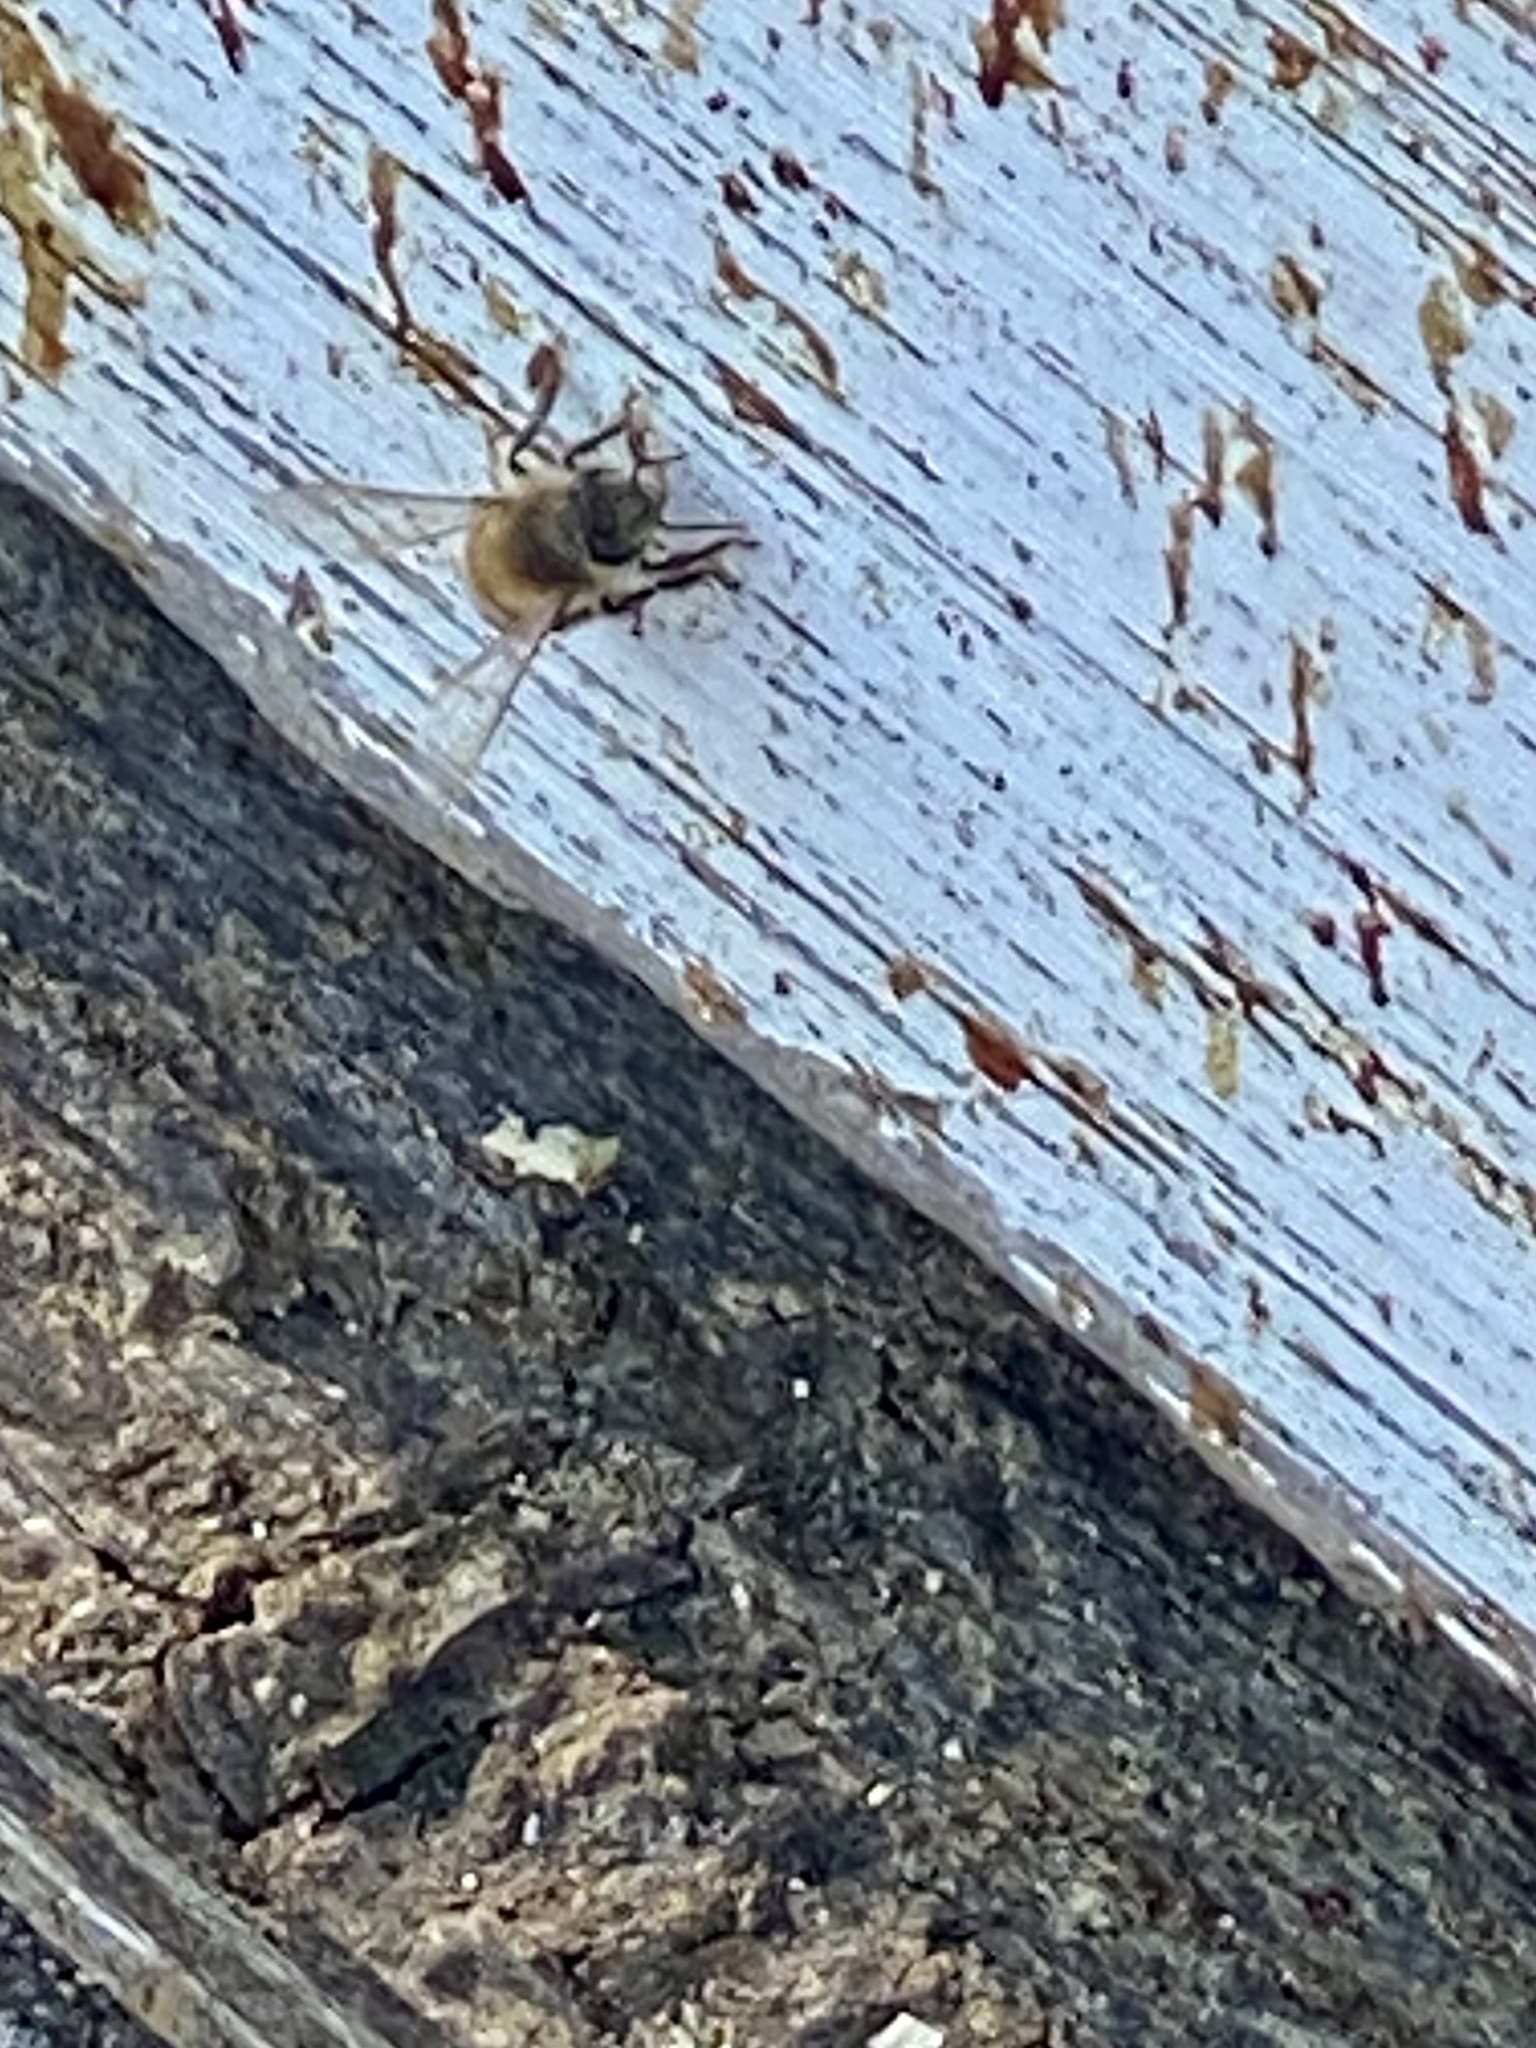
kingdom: Animalia
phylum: Arthropoda
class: Insecta
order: Hymenoptera
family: Apidae
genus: Apis
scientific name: Apis mellifera
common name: Honey bee
